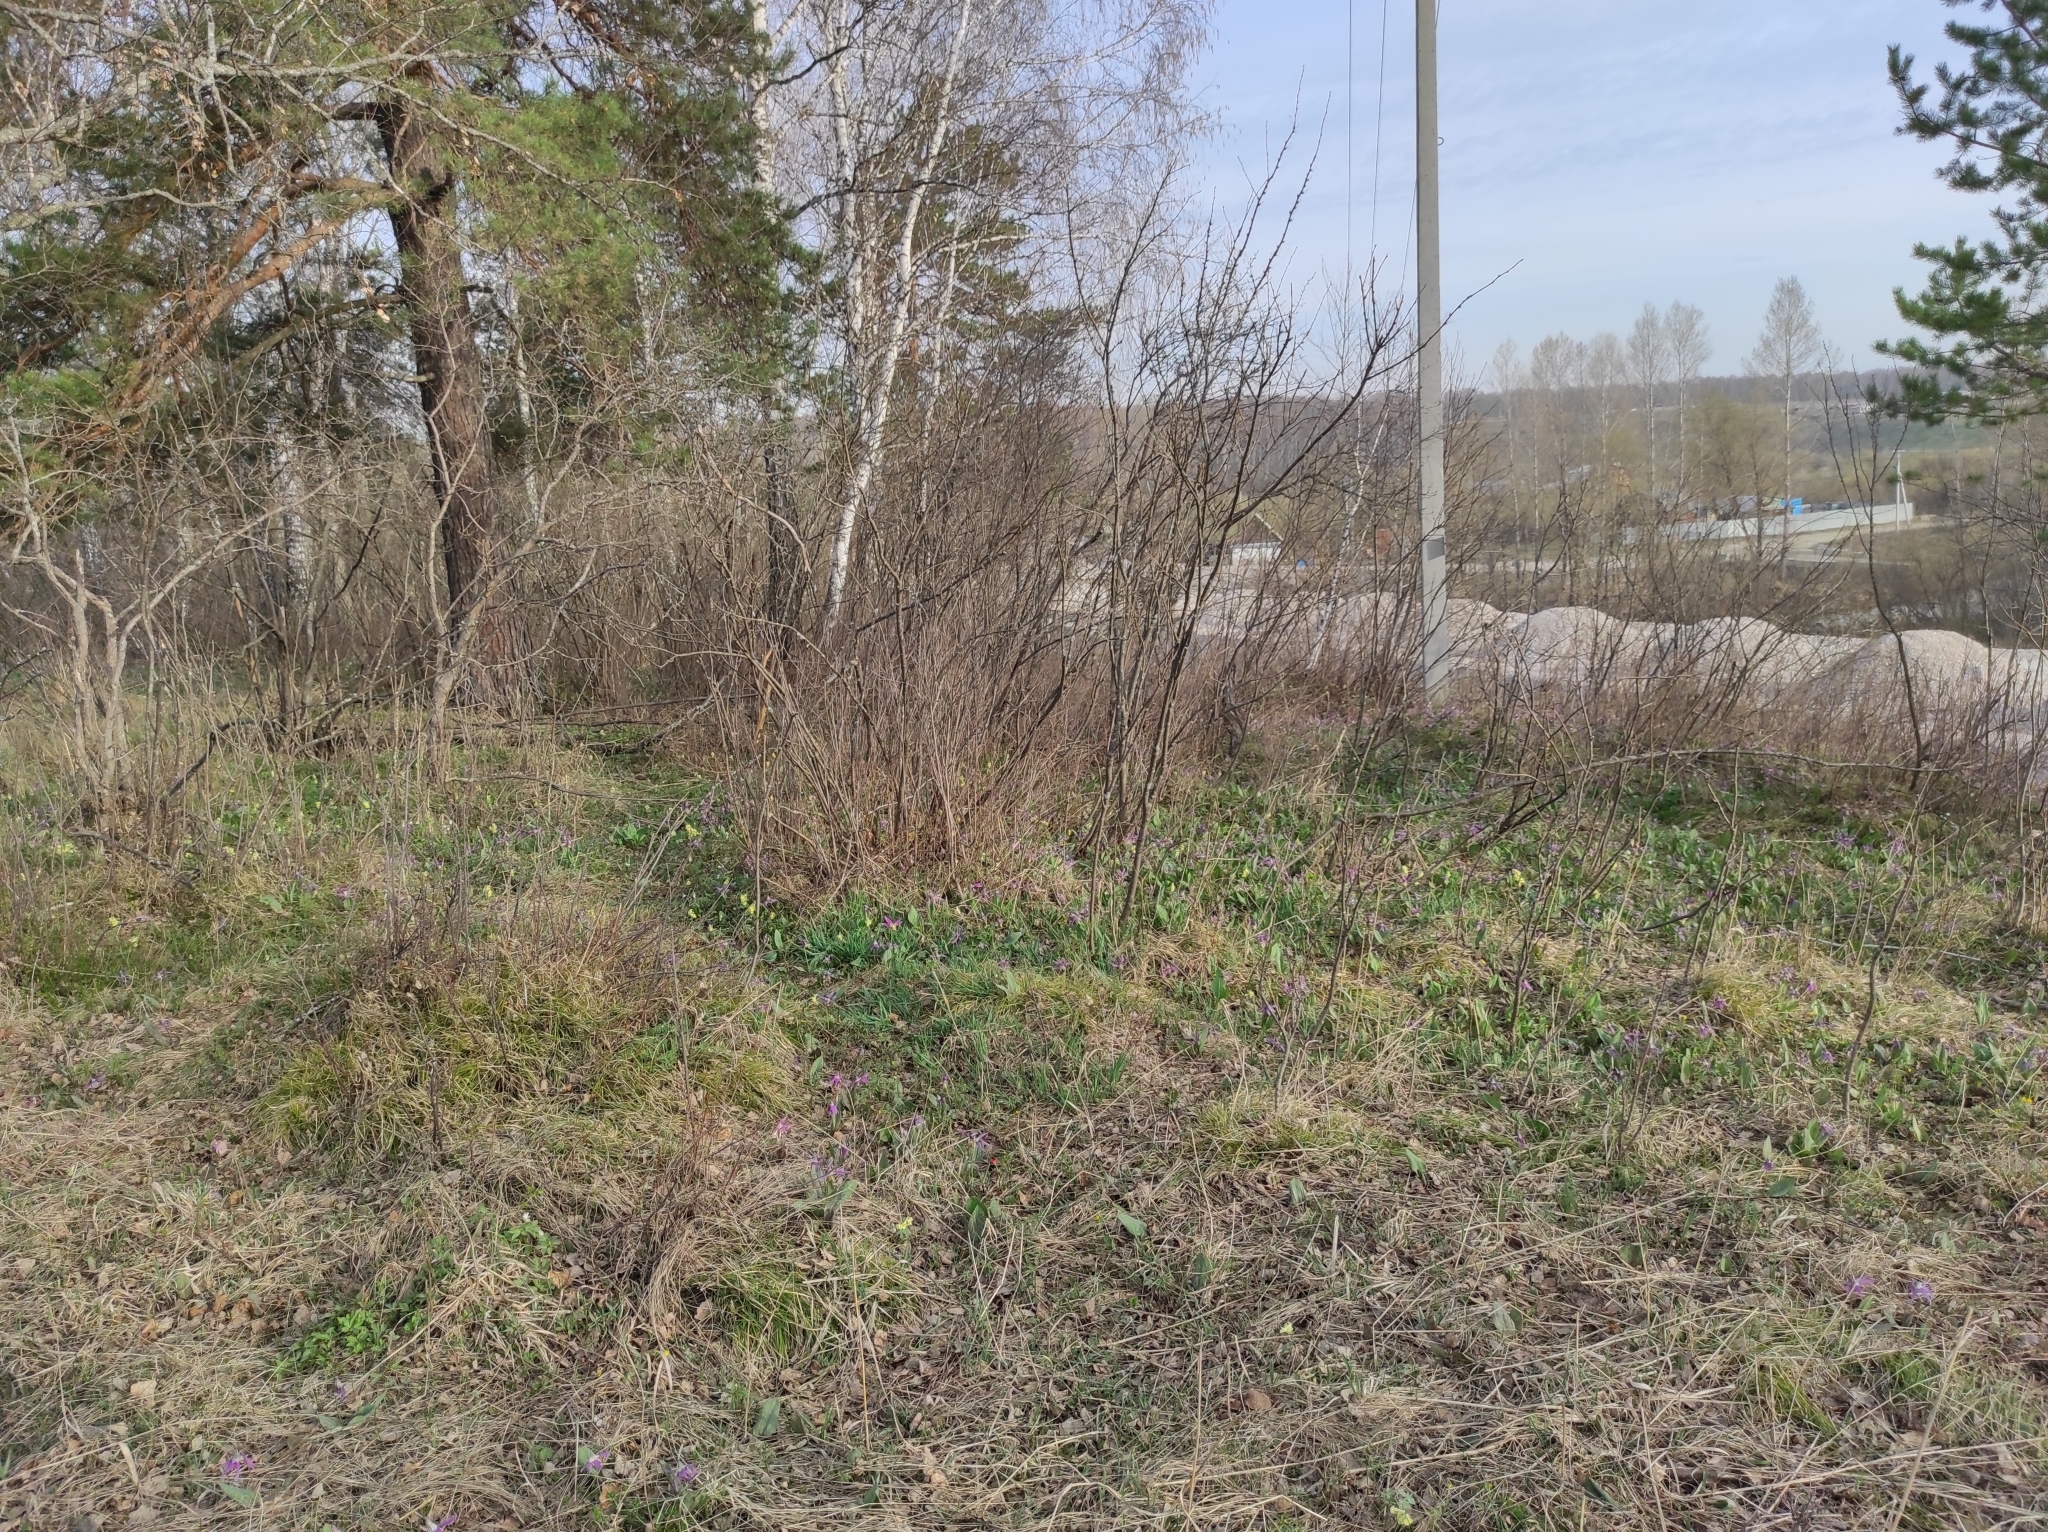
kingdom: Plantae
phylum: Tracheophyta
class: Liliopsida
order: Liliales
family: Liliaceae
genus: Erythronium
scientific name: Erythronium sibiricum
